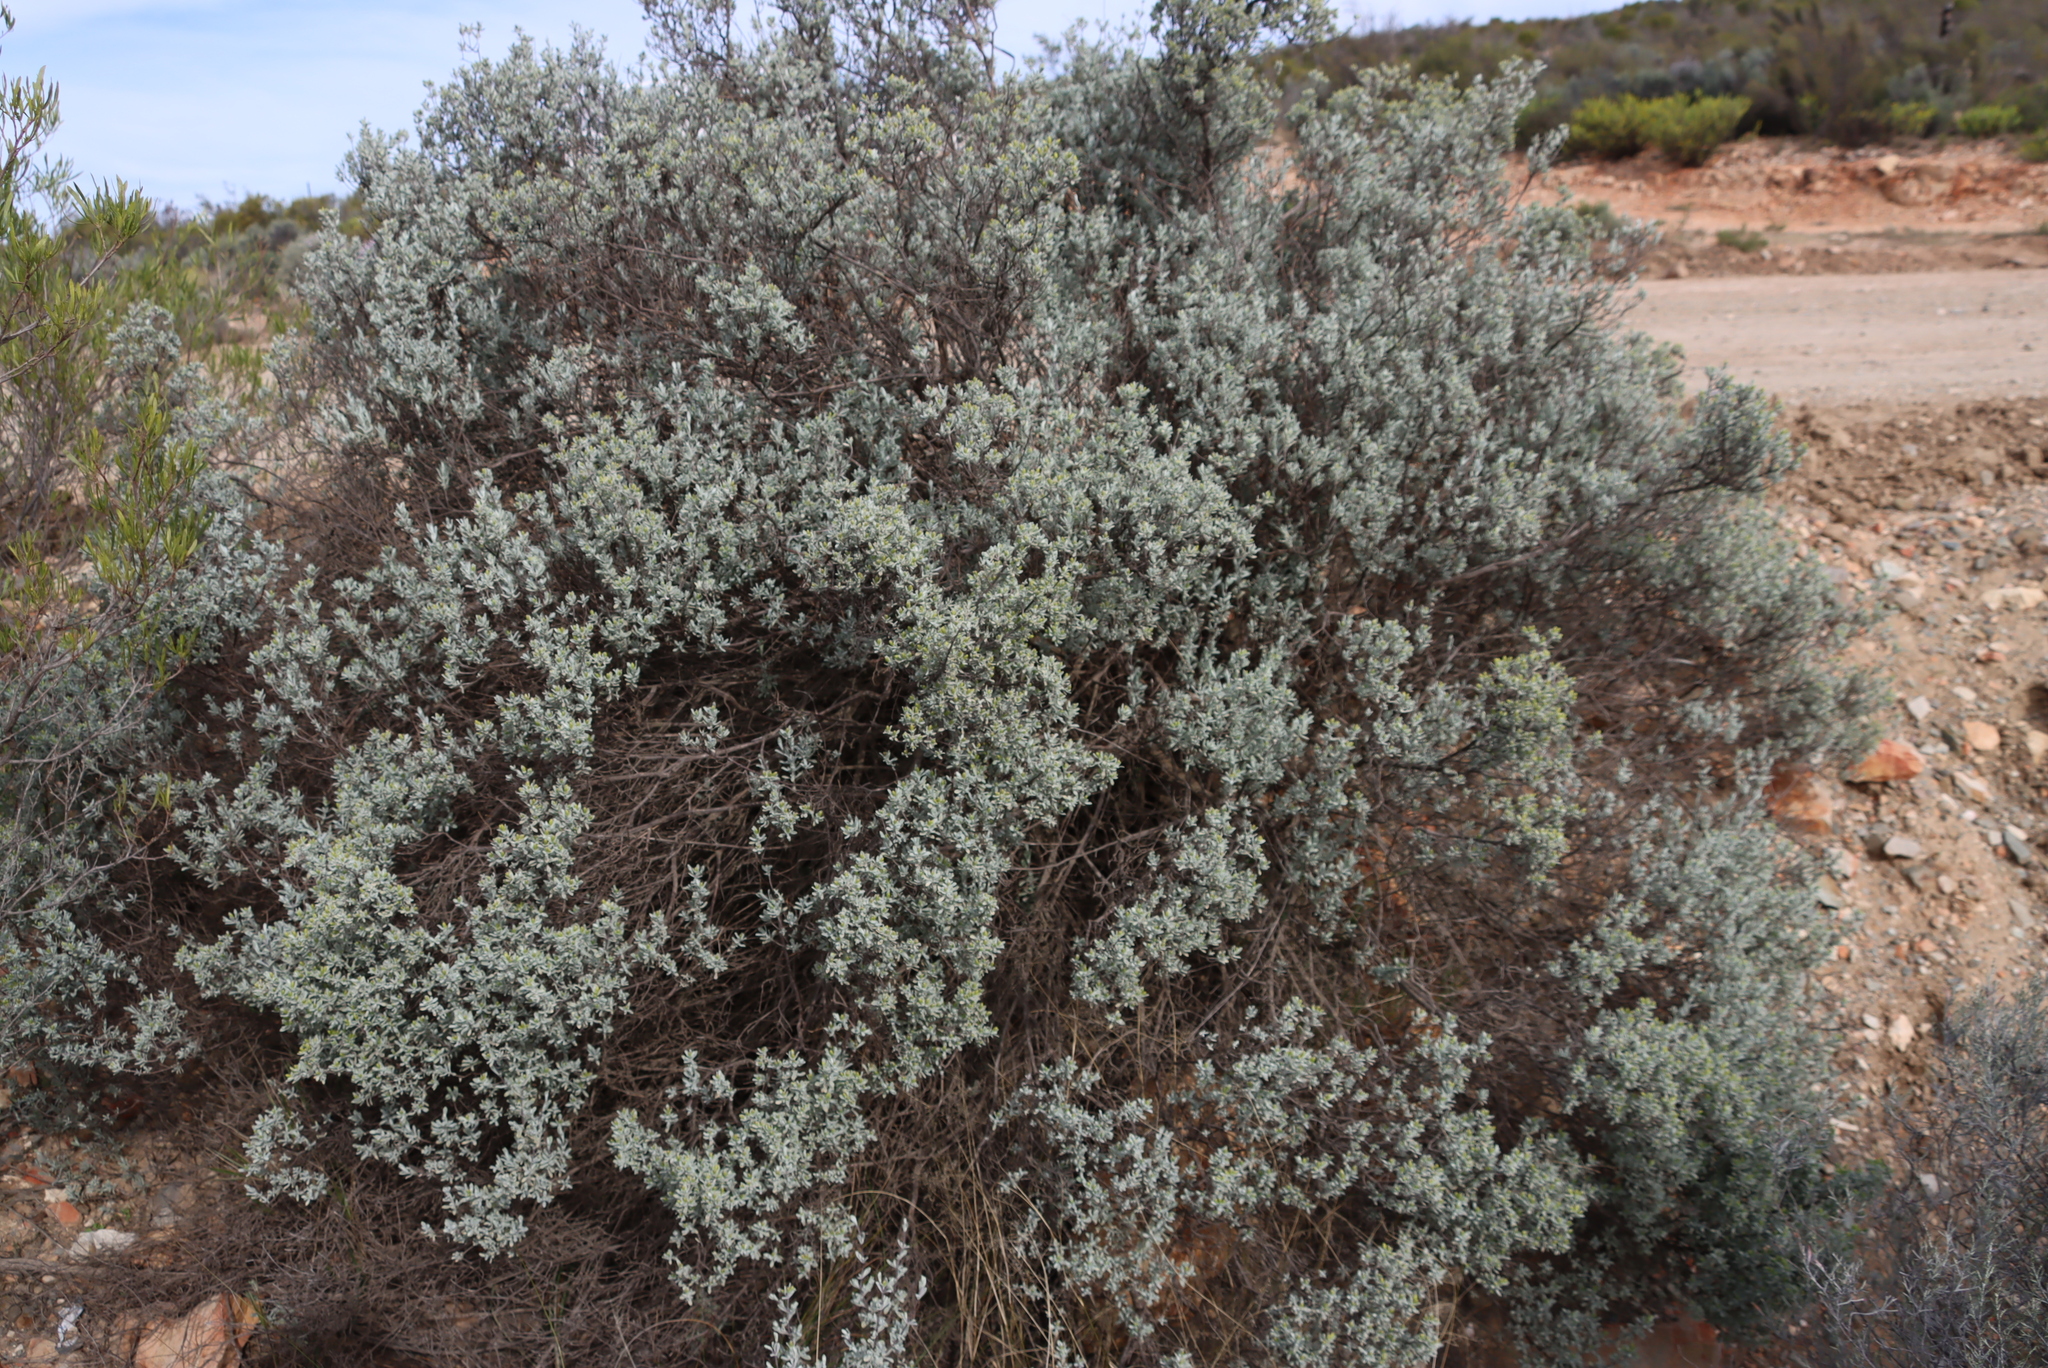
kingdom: Plantae
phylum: Tracheophyta
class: Magnoliopsida
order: Asterales
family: Asteraceae
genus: Pteronia
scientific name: Pteronia incana
